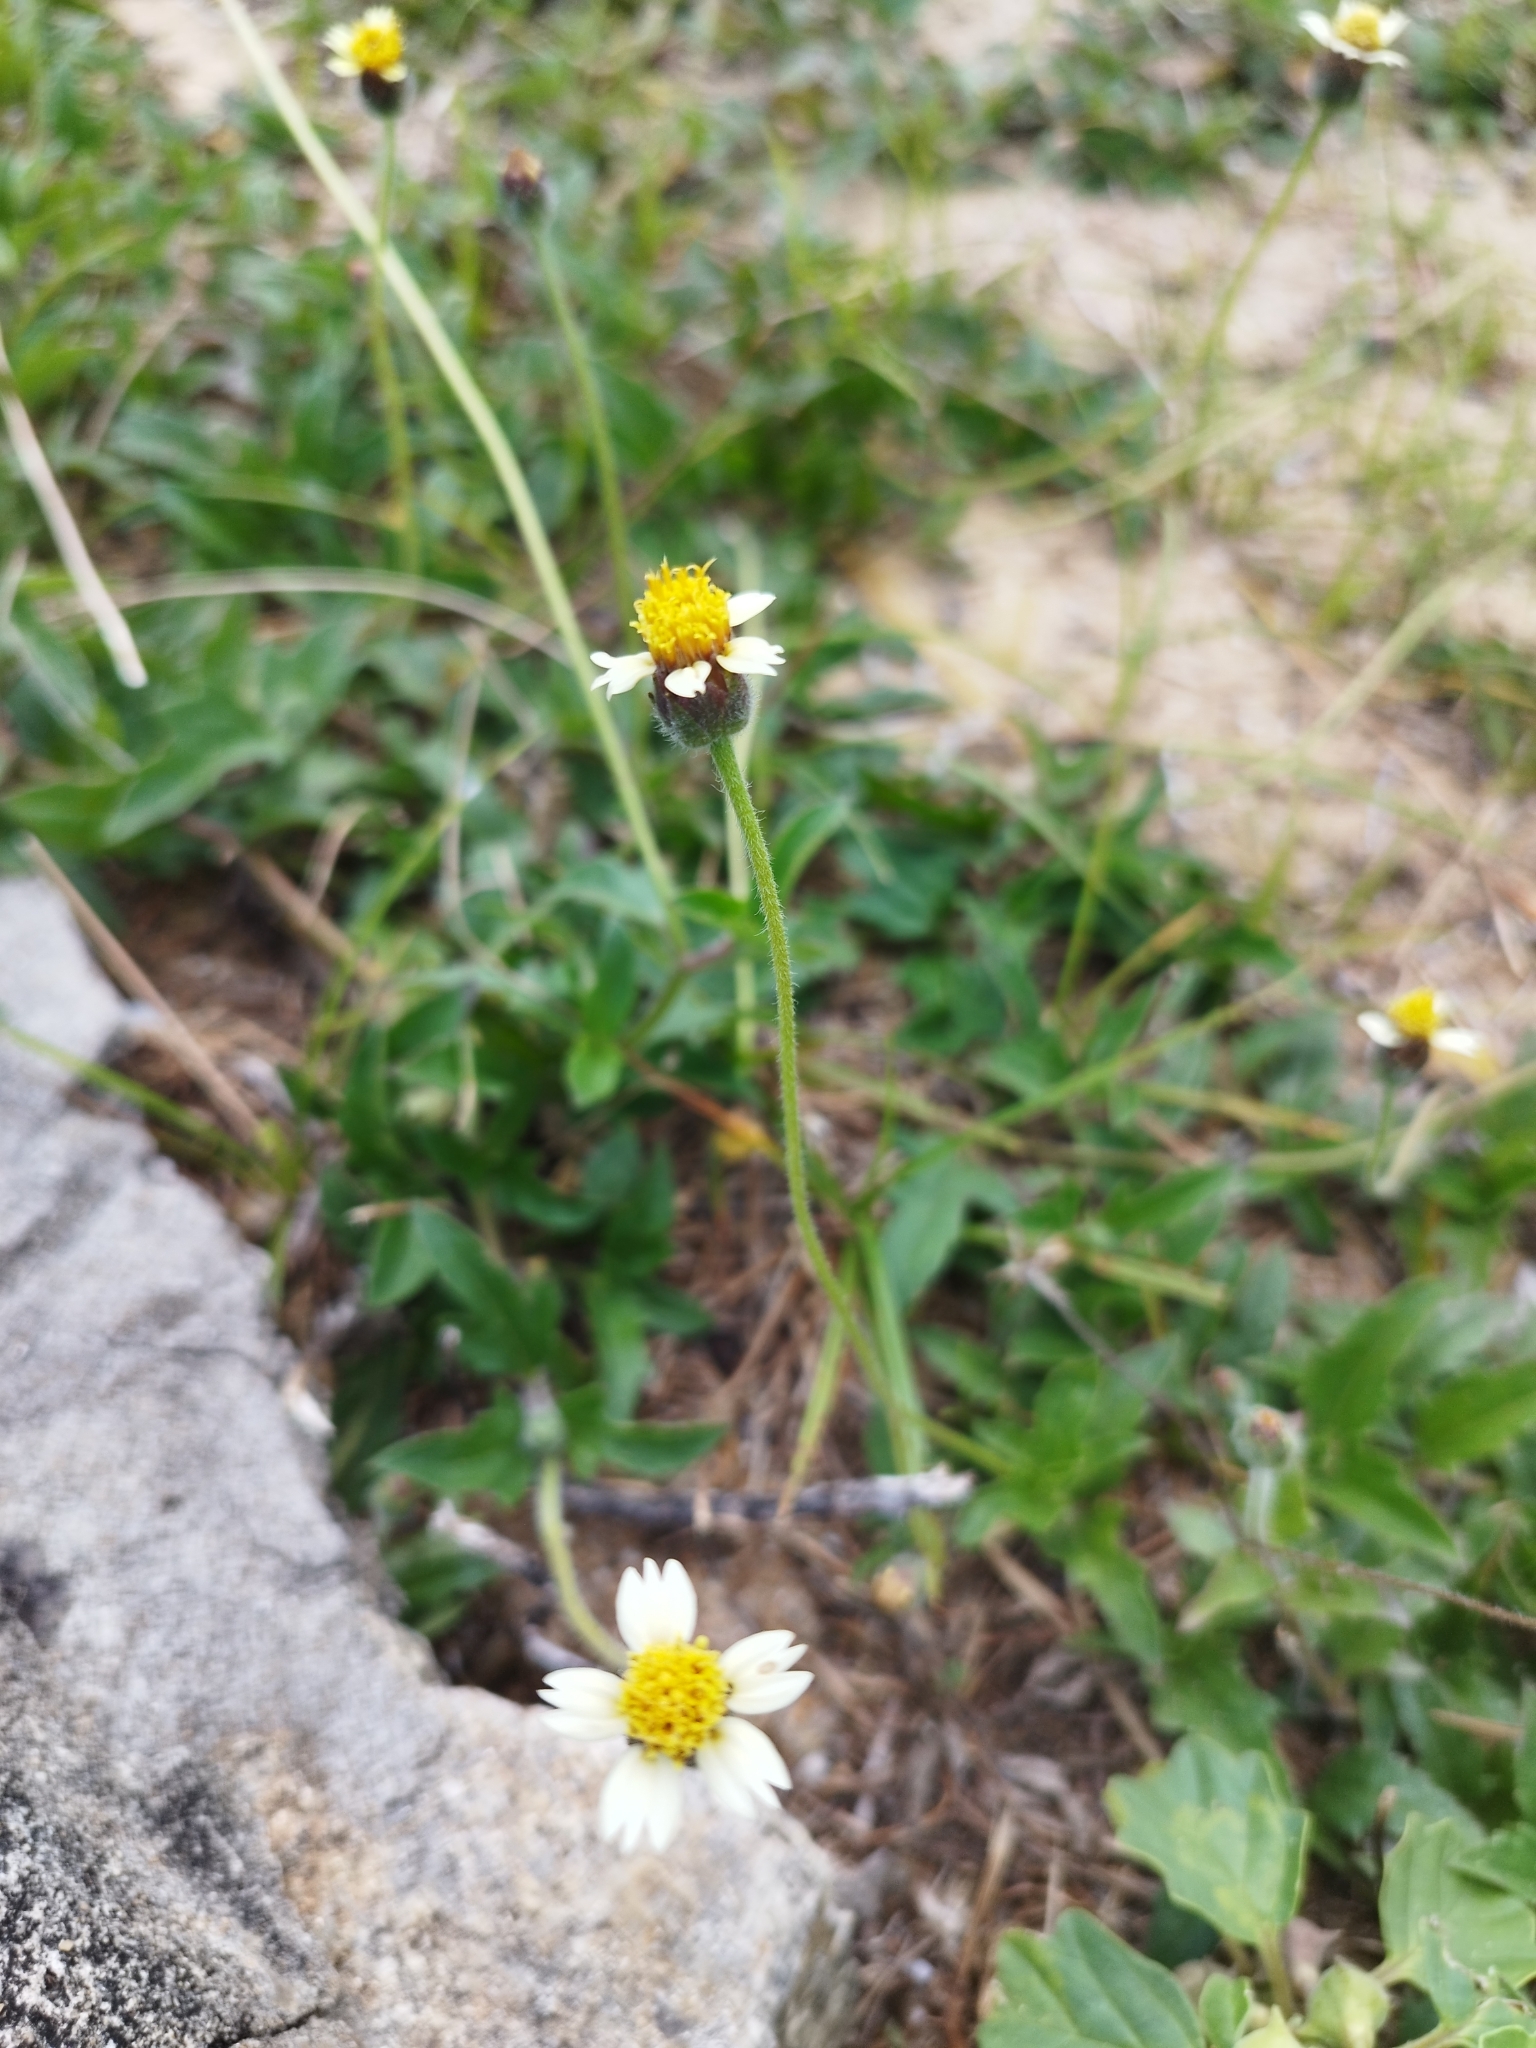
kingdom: Plantae
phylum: Tracheophyta
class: Magnoliopsida
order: Asterales
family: Asteraceae
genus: Tridax
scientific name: Tridax procumbens
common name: Coatbuttons
